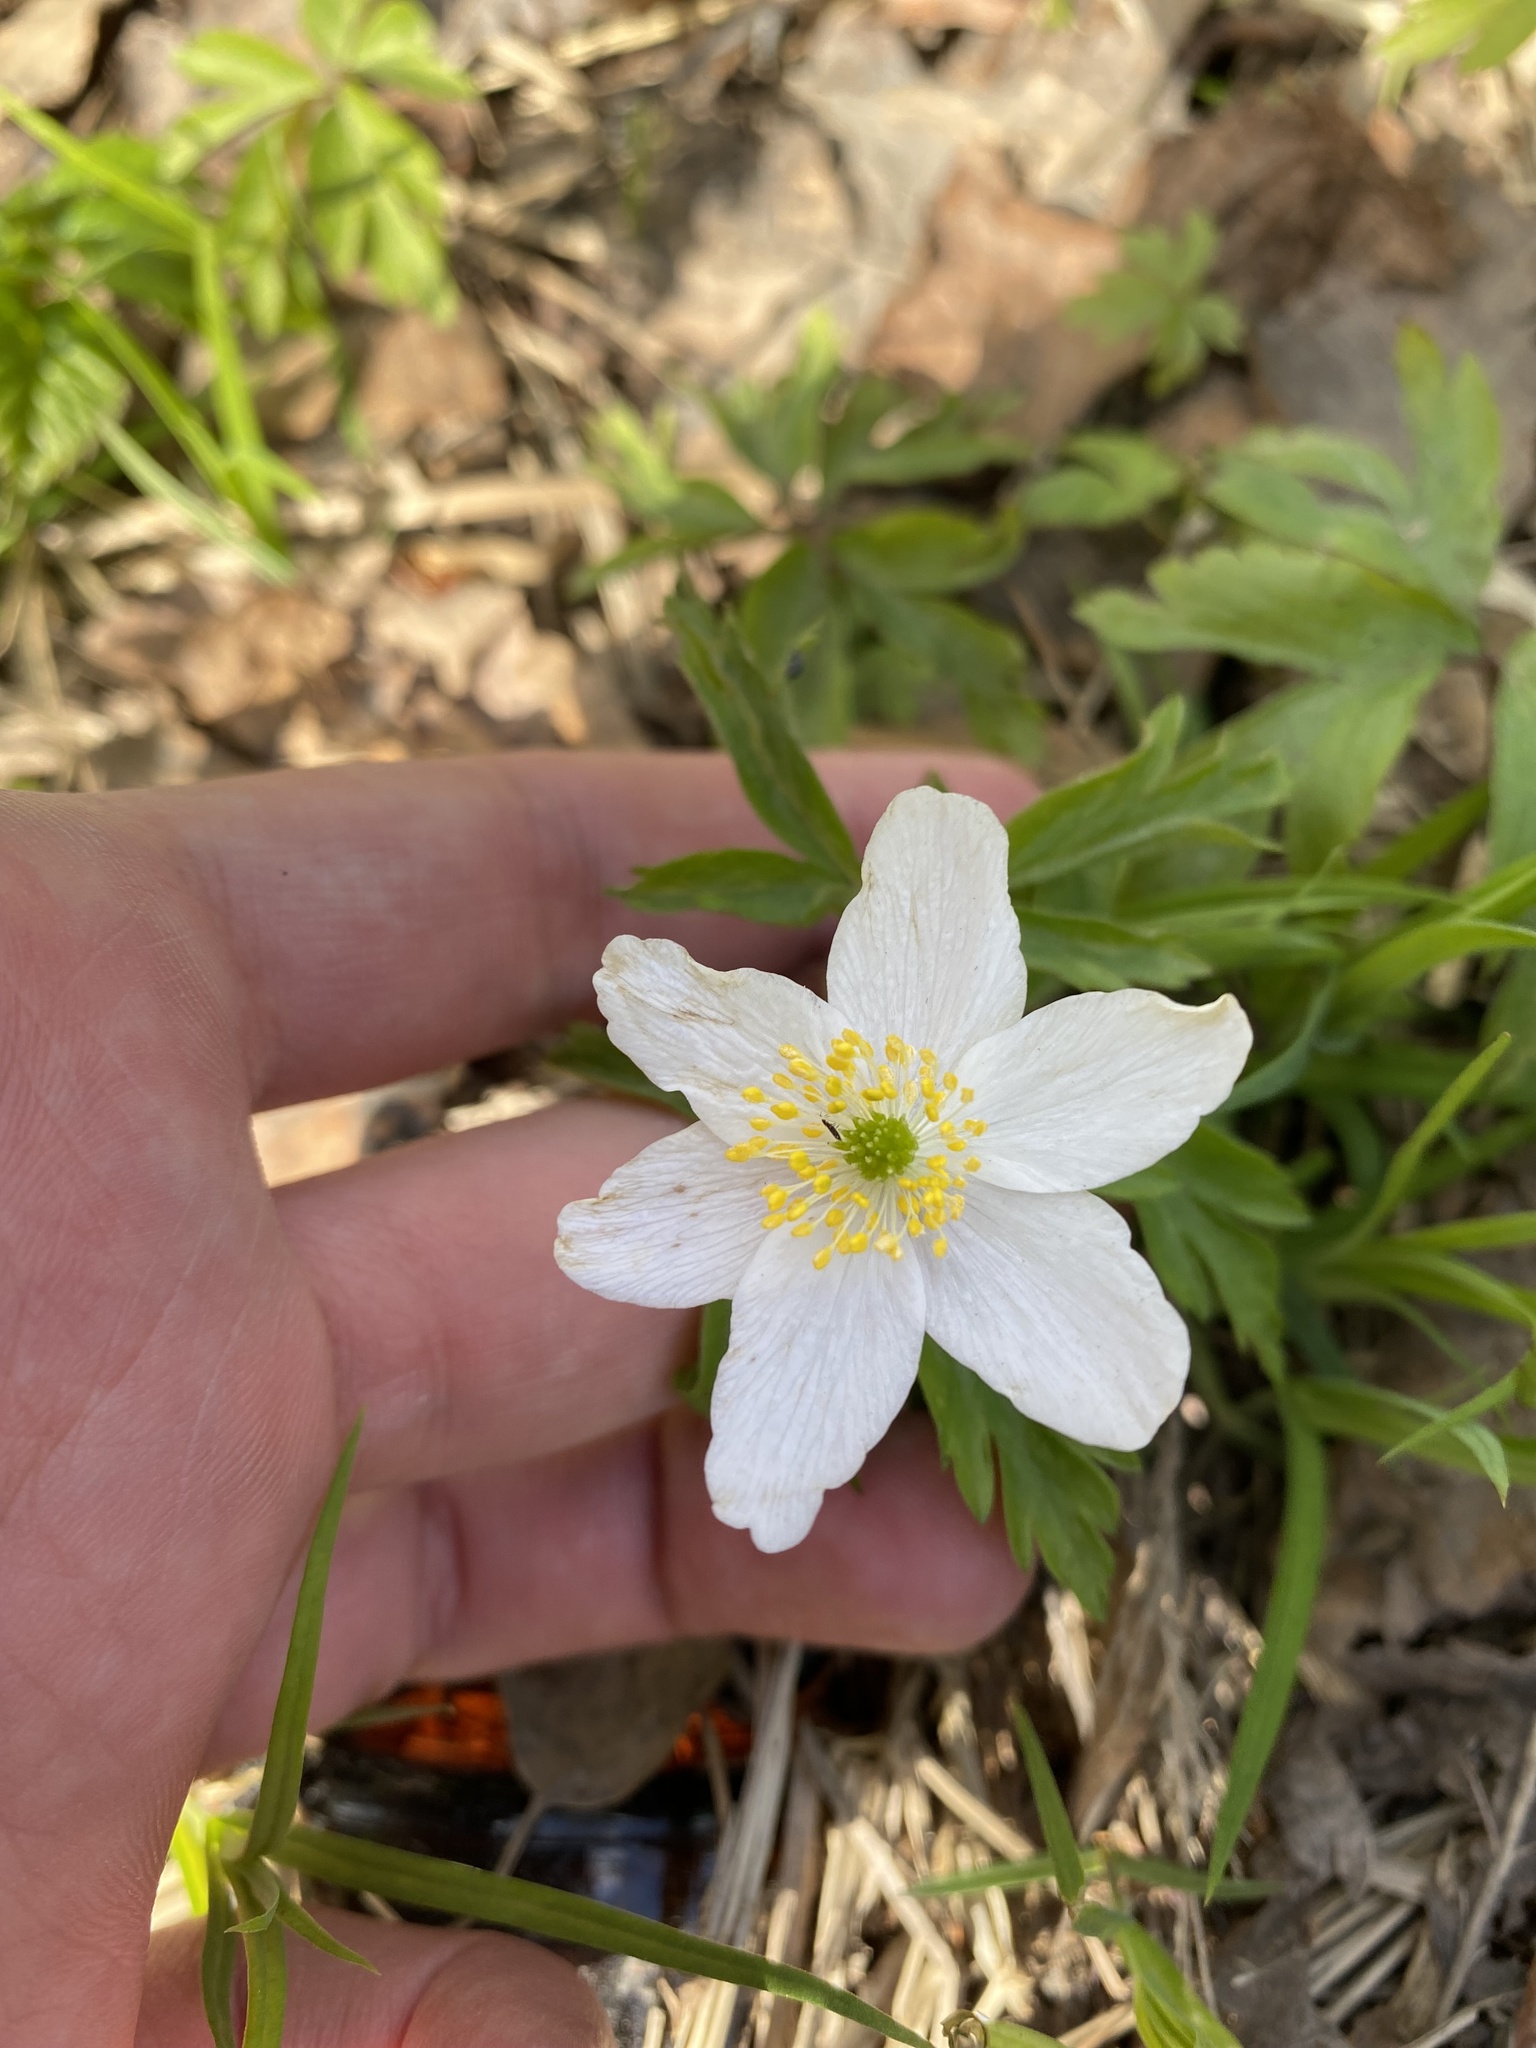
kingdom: Plantae
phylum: Tracheophyta
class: Magnoliopsida
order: Ranunculales
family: Ranunculaceae
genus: Anemone
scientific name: Anemone nemorosa
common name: Wood anemone
